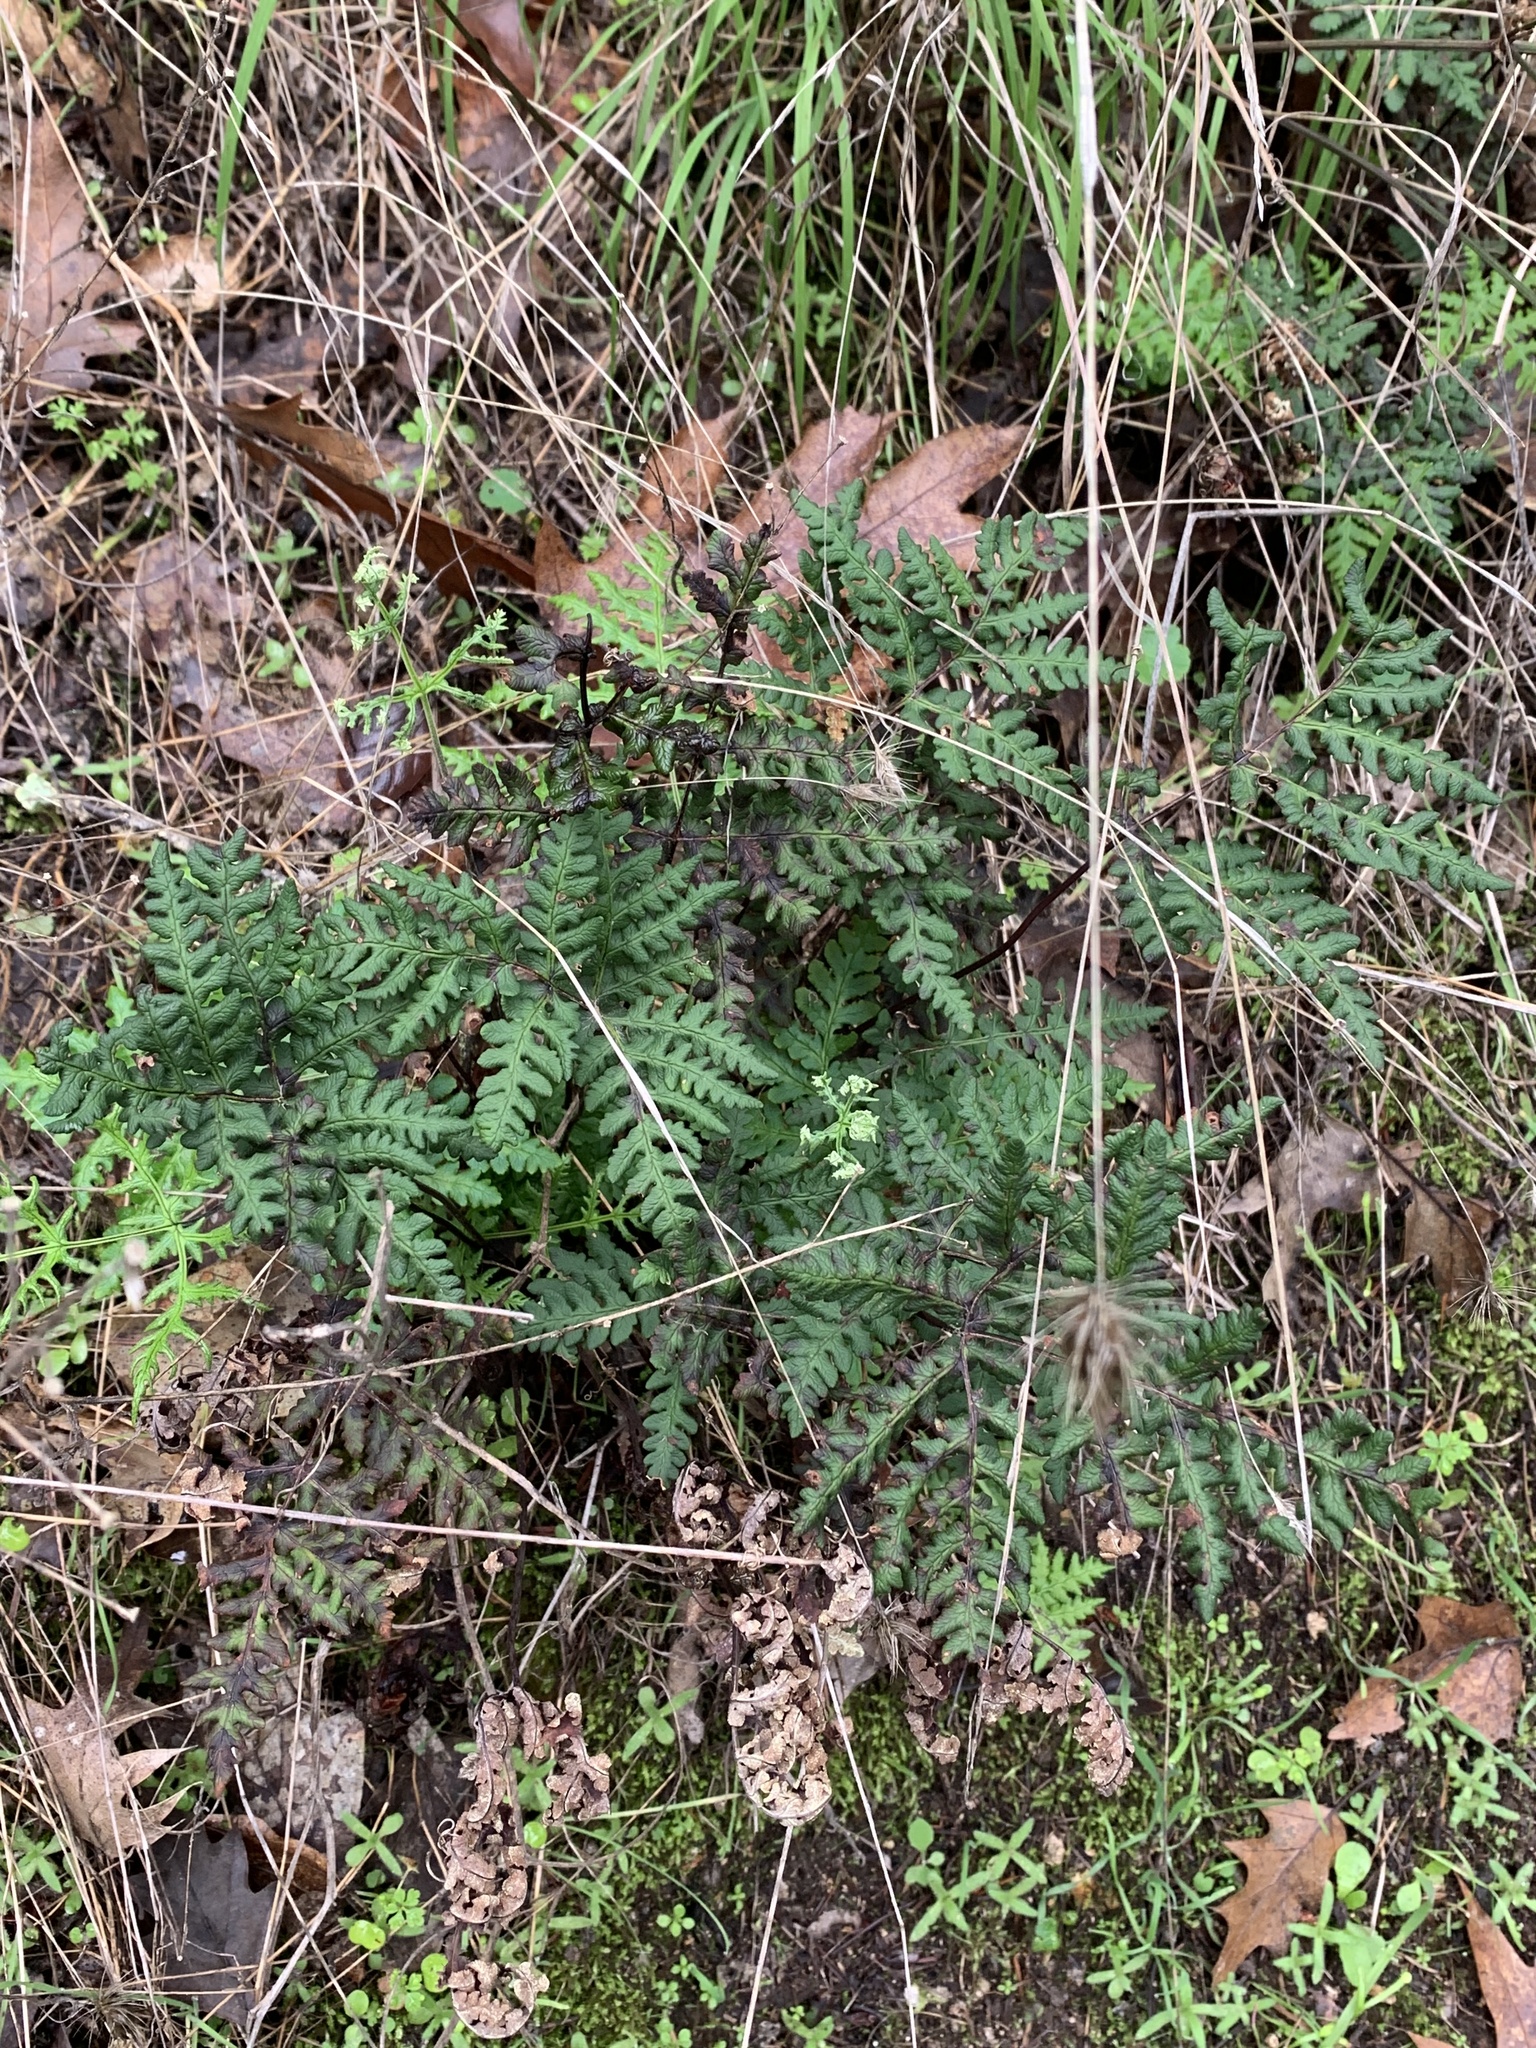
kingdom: Plantae
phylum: Tracheophyta
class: Polypodiopsida
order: Polypodiales
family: Pteridaceae
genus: Pentagramma
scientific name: Pentagramma triangularis
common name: Gold fern
